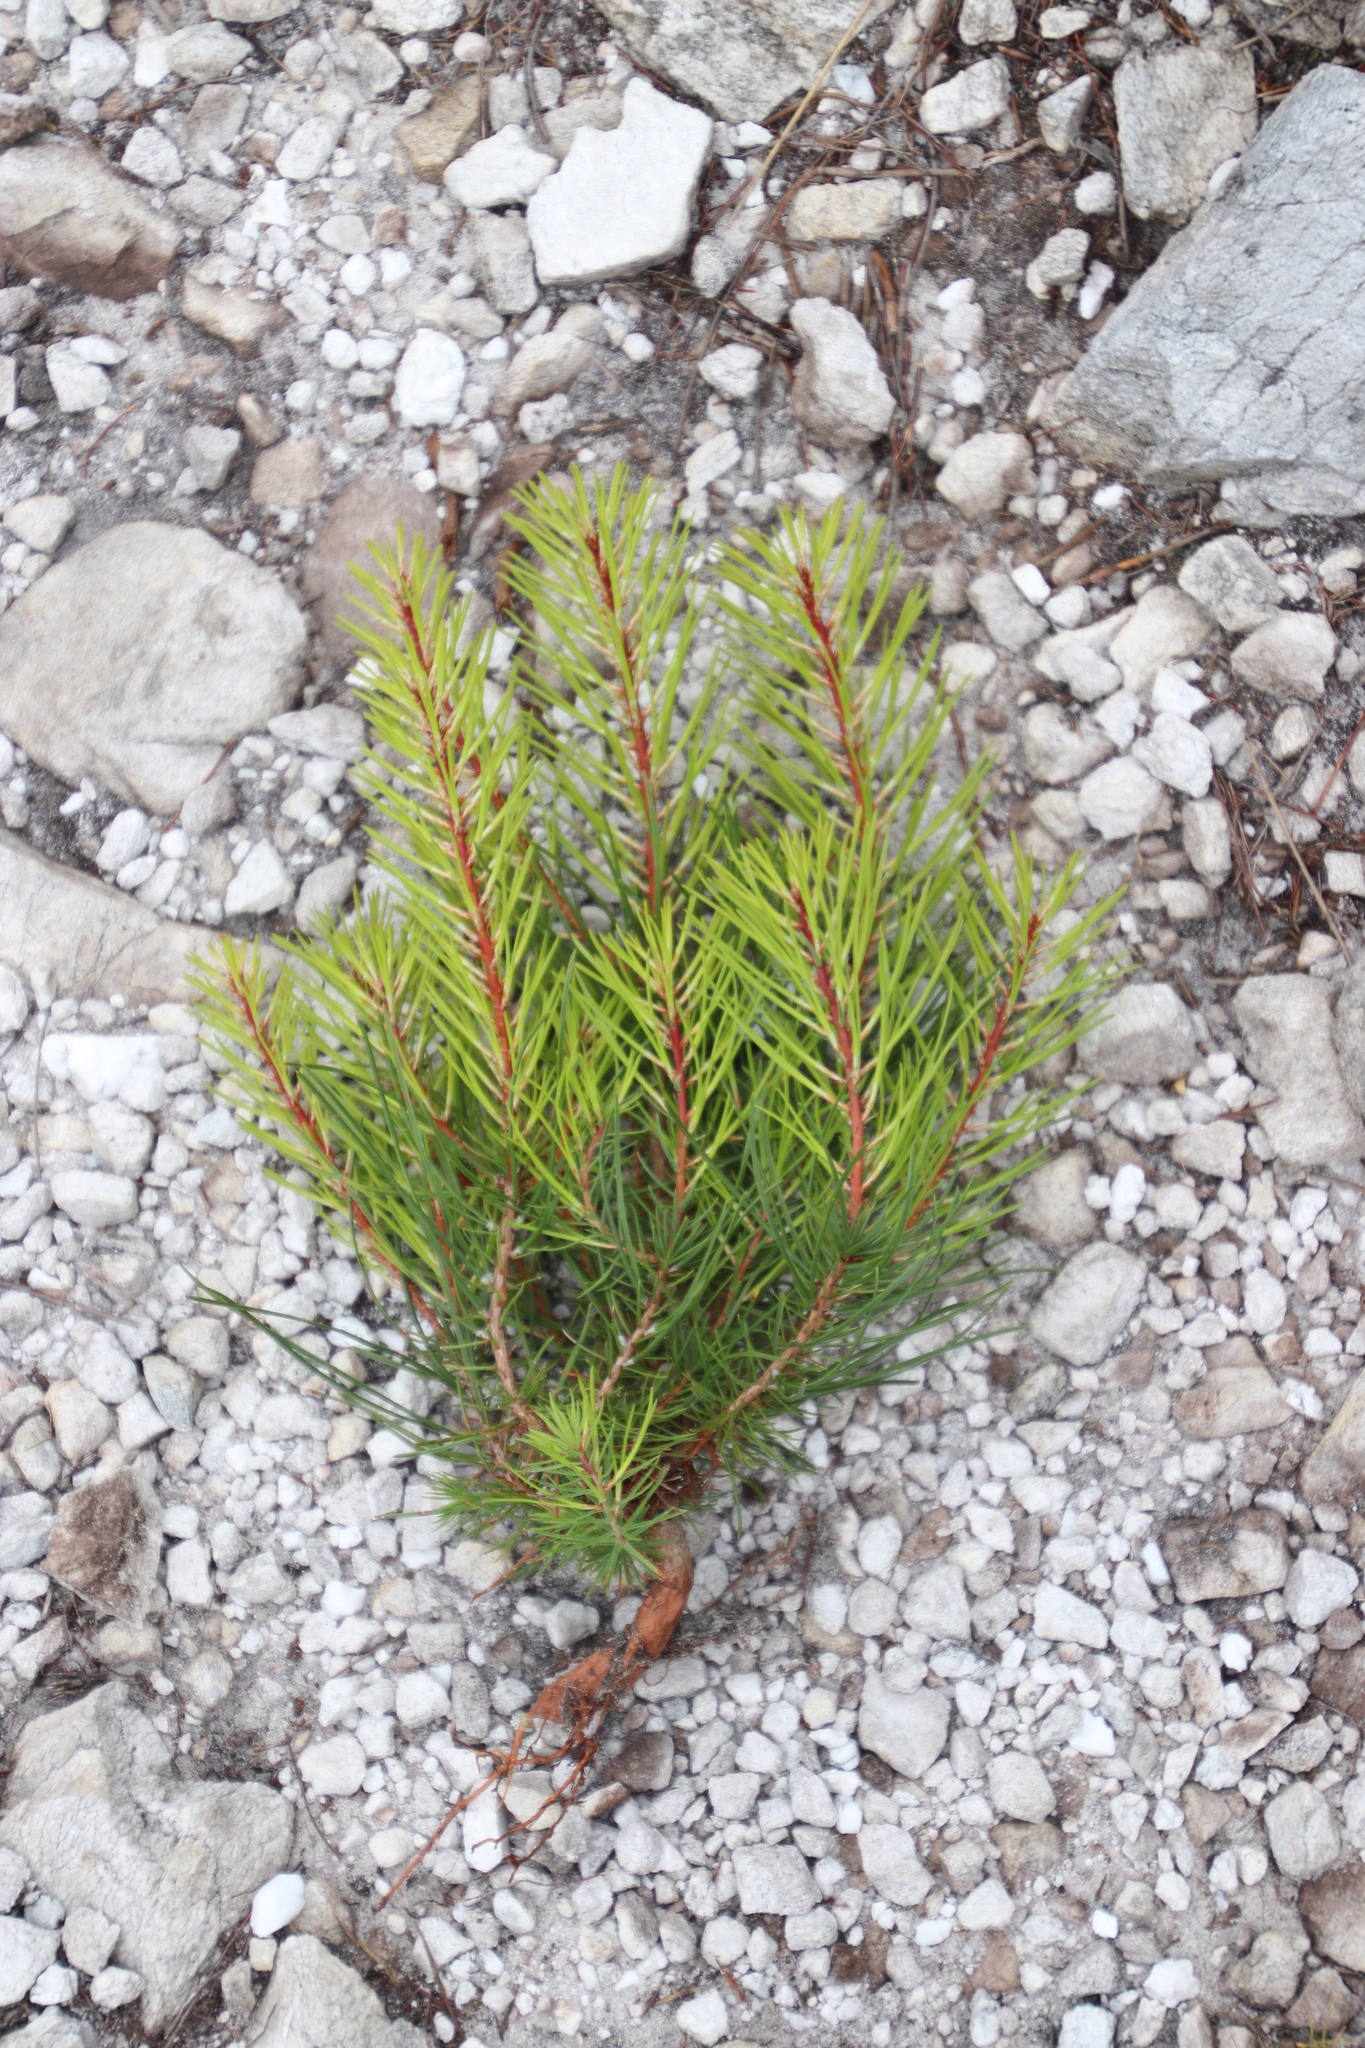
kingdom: Plantae
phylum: Tracheophyta
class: Pinopsida
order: Pinales
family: Pinaceae
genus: Pinus
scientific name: Pinus pinaster
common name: Maritime pine
